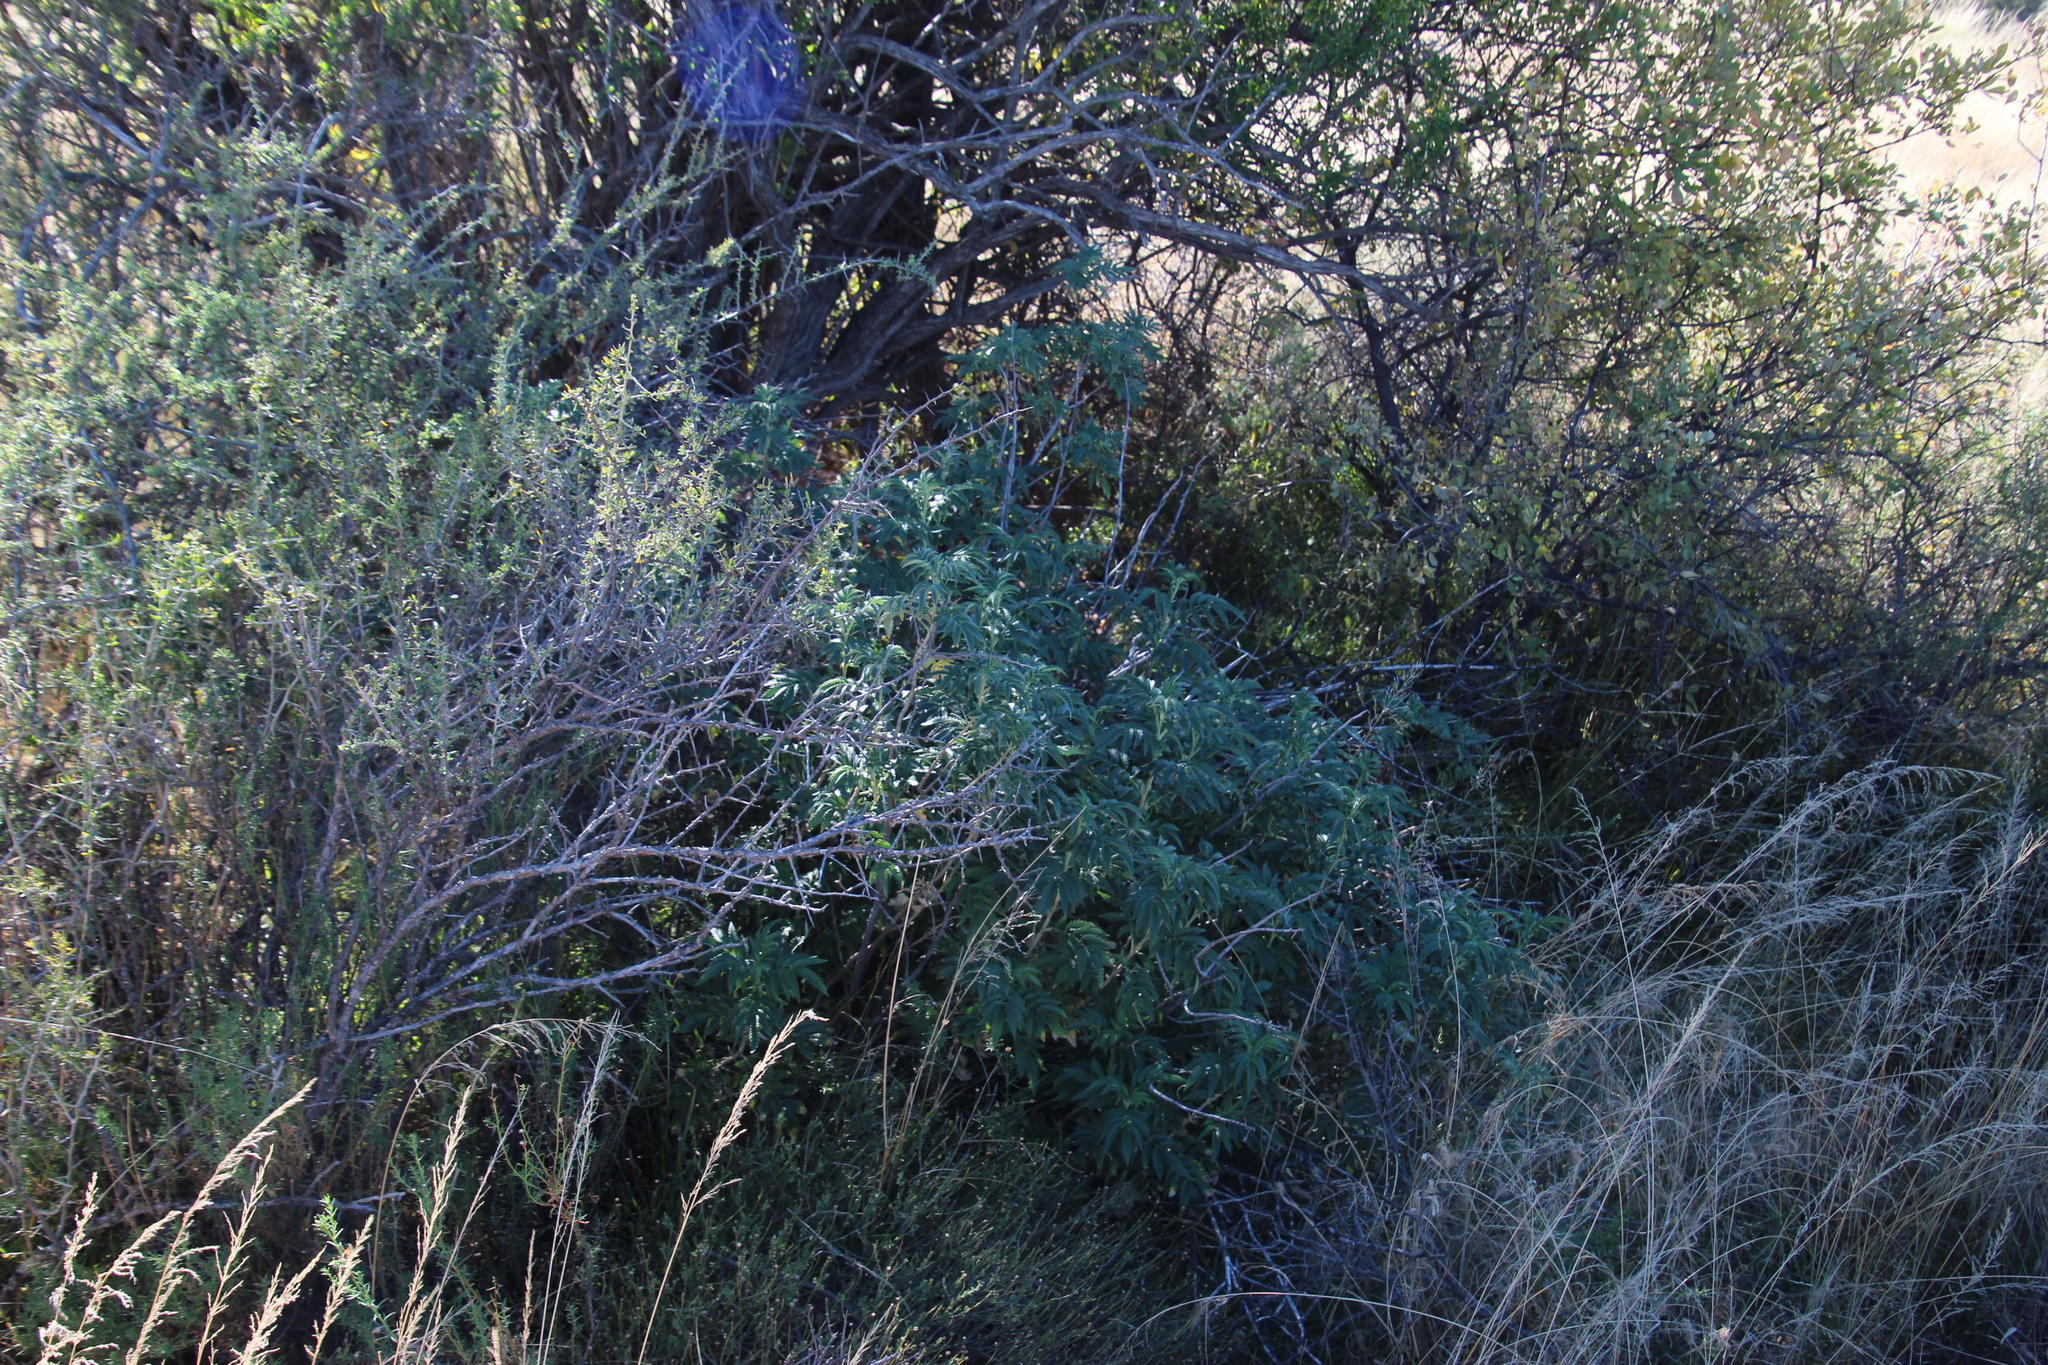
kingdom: Plantae
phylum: Tracheophyta
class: Magnoliopsida
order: Geraniales
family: Melianthaceae
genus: Melianthus
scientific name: Melianthus comosus
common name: Touch-me-not
